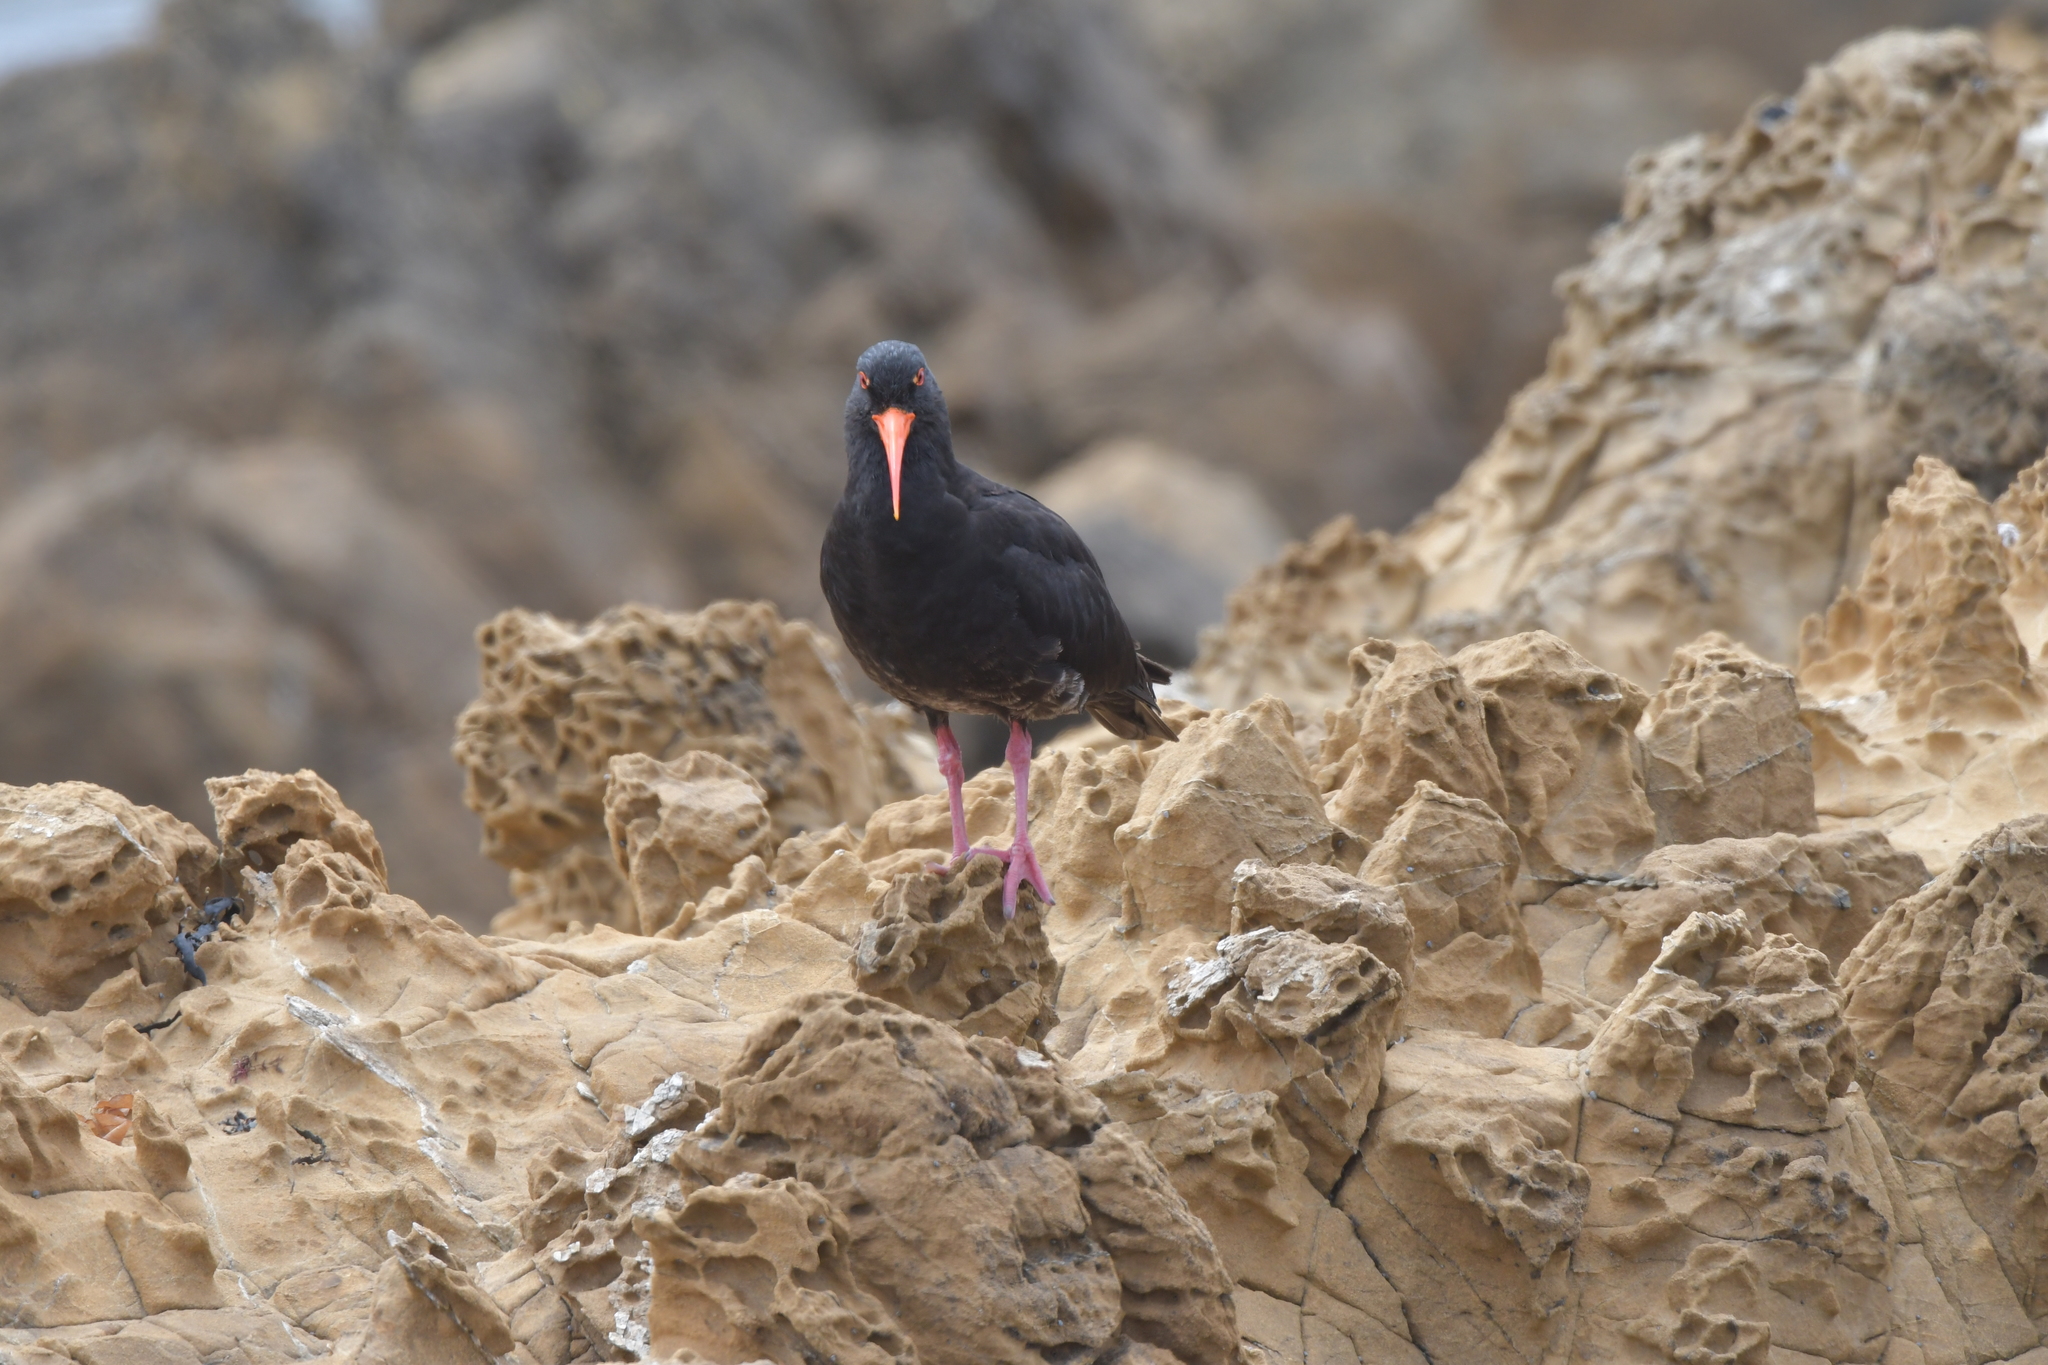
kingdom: Animalia
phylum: Chordata
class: Aves
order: Charadriiformes
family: Haematopodidae
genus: Haematopus
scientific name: Haematopus unicolor
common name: Variable oystercatcher
